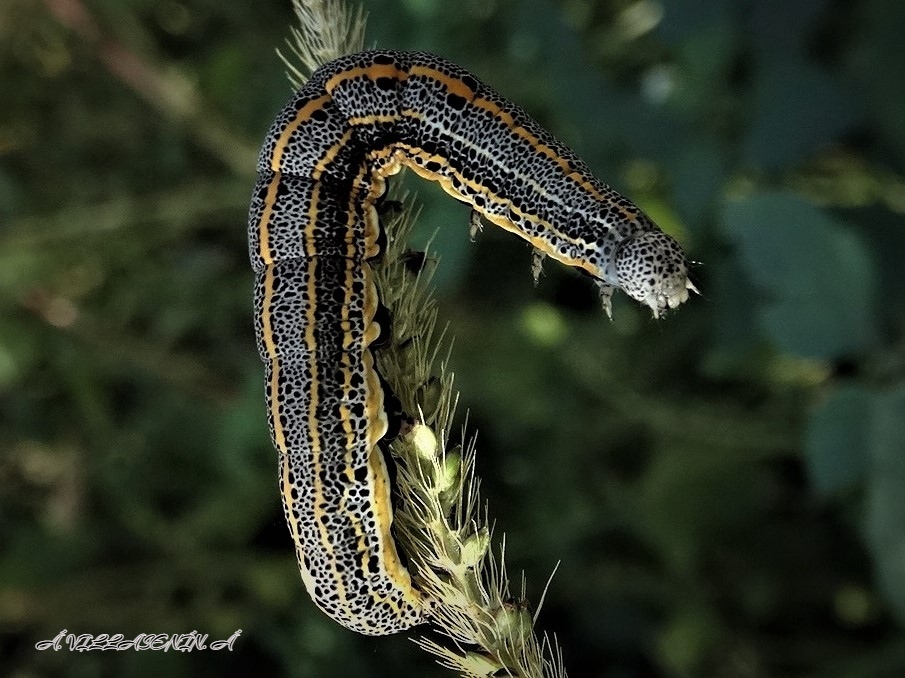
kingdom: Animalia
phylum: Arthropoda
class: Insecta
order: Lepidoptera
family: Noctuidae
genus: Aedia
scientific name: Aedia leucomelas
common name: Sorcerer
